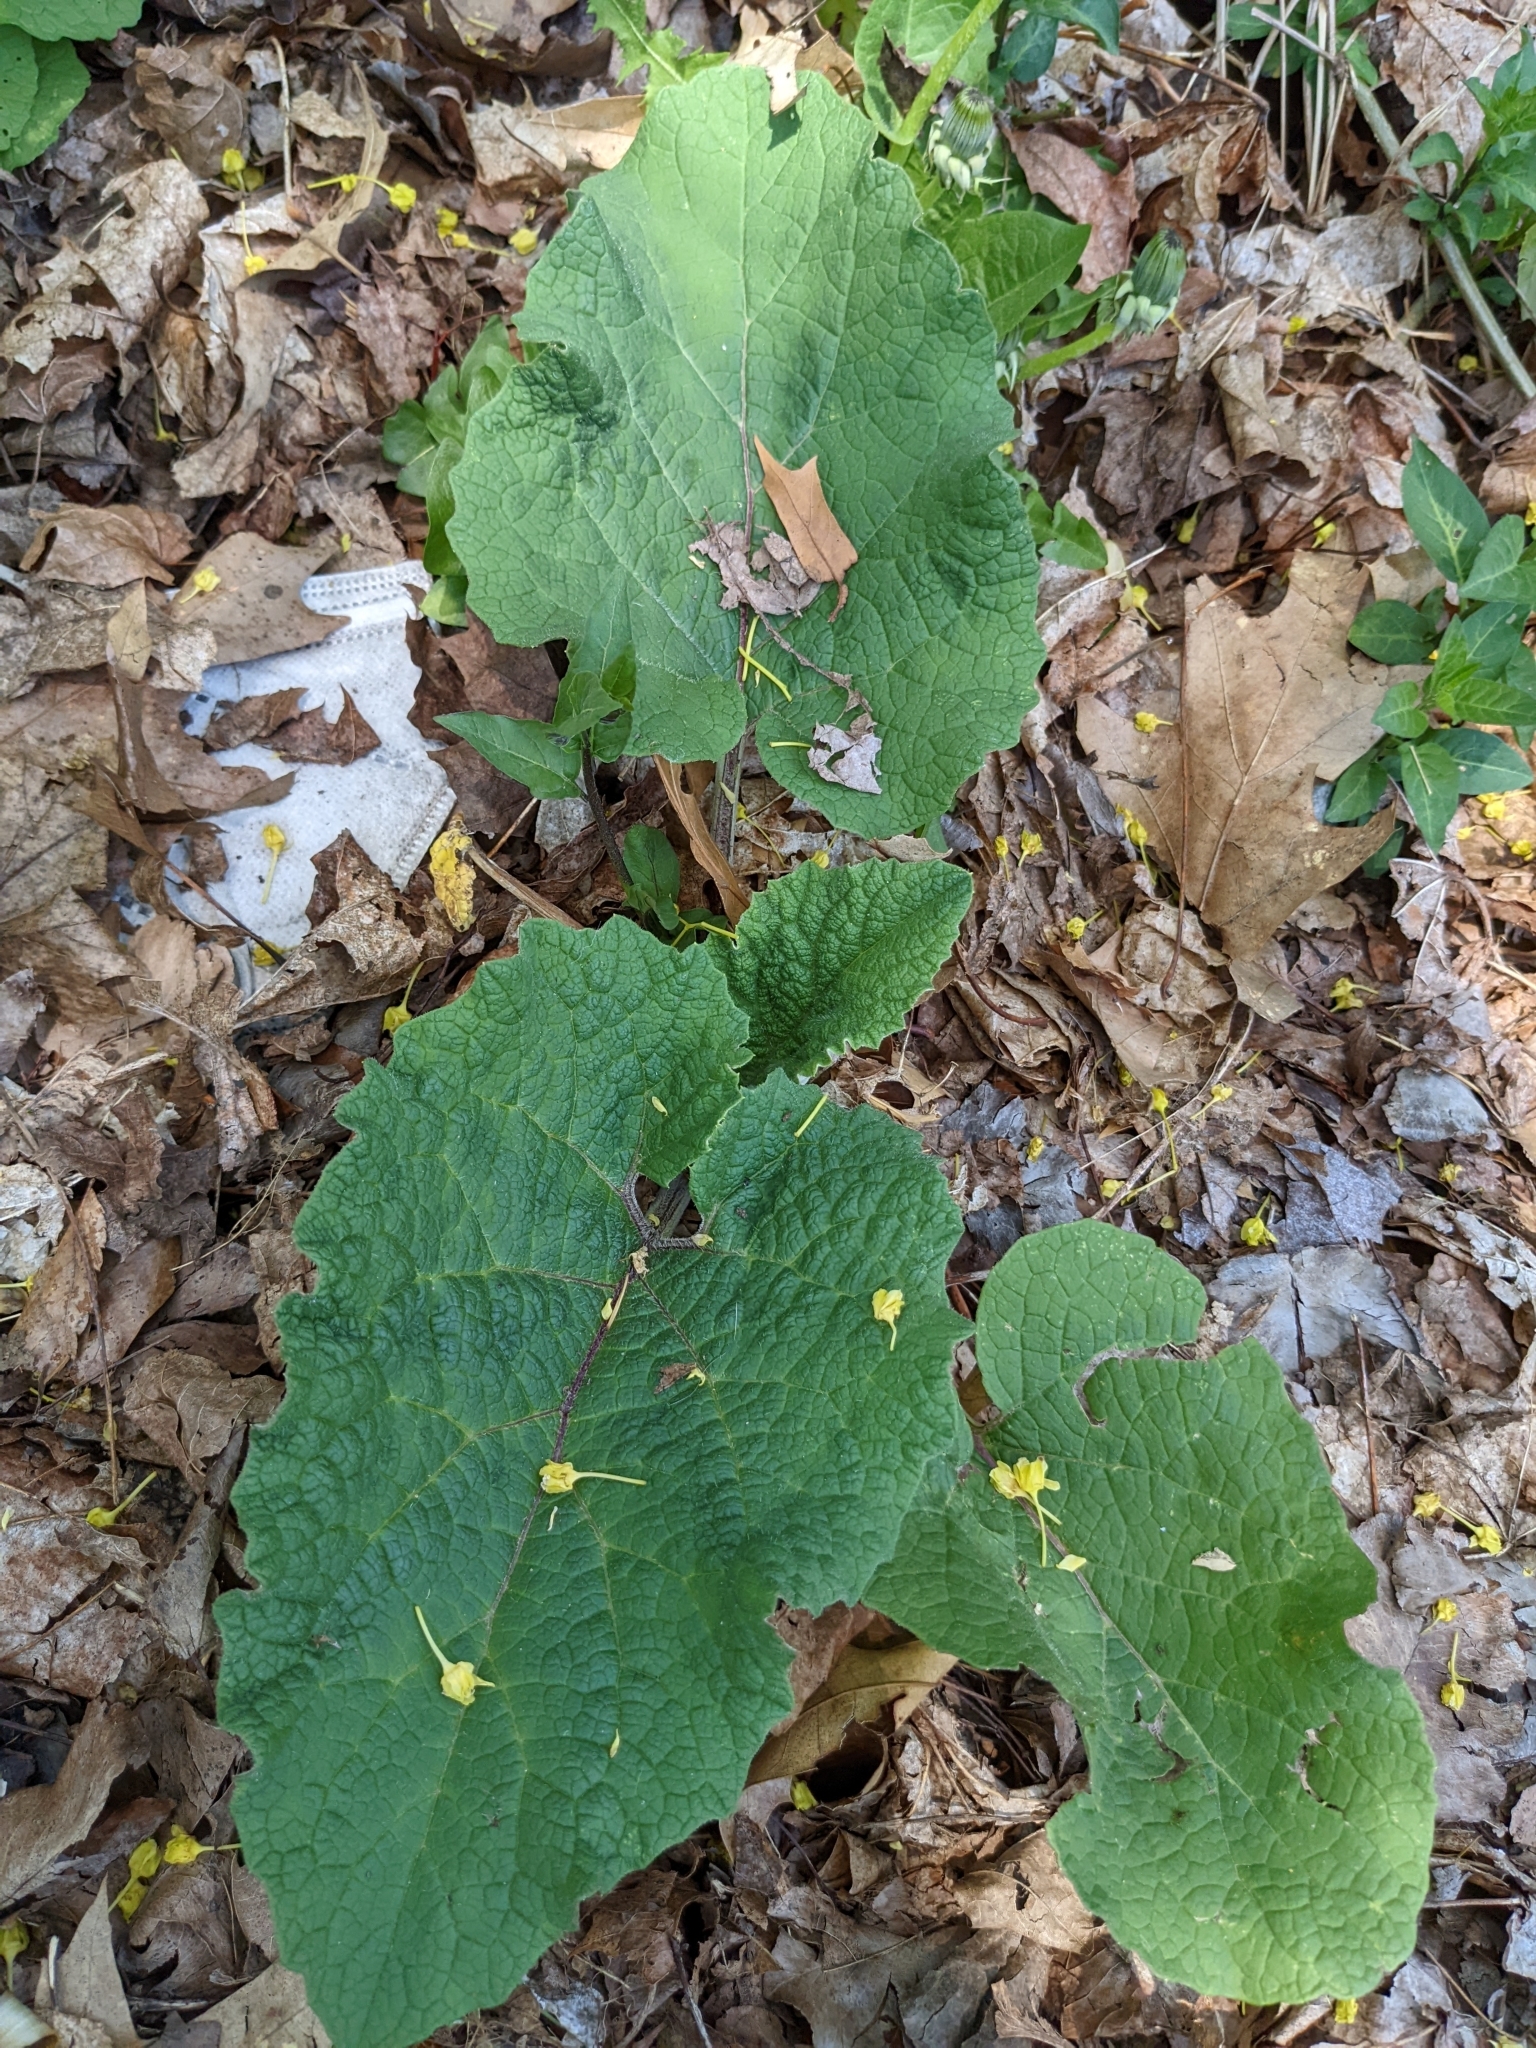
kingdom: Plantae
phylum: Tracheophyta
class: Magnoliopsida
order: Asterales
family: Asteraceae
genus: Arctium
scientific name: Arctium
